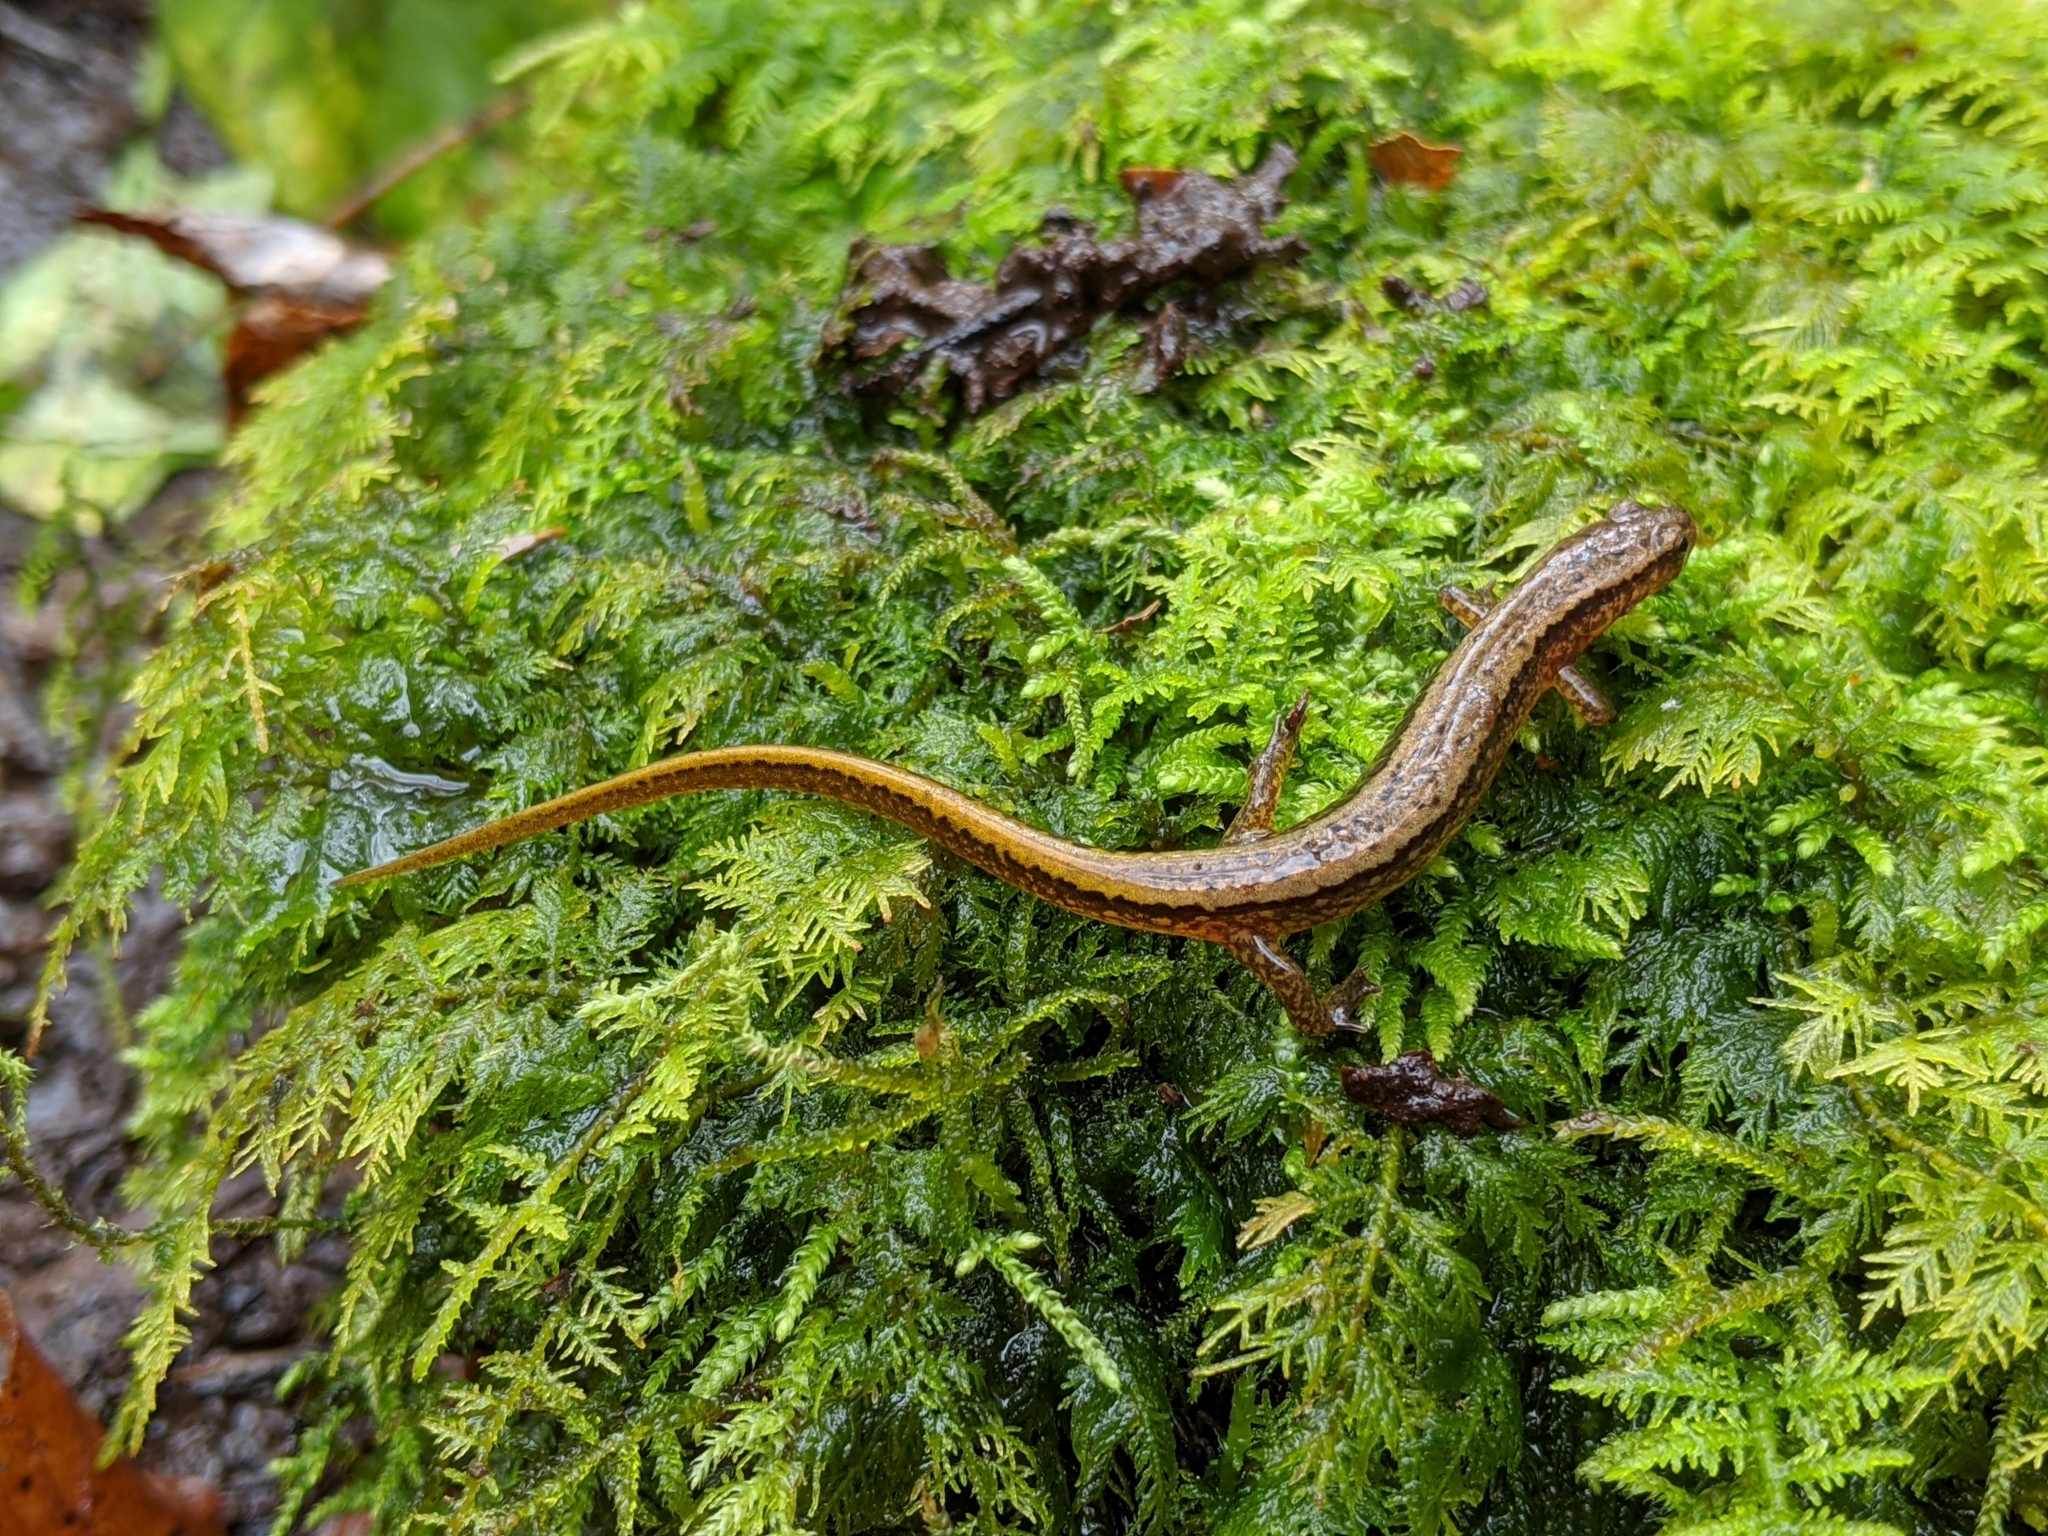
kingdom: Animalia
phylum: Chordata
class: Amphibia
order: Caudata
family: Plethodontidae
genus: Eurycea
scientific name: Eurycea bislineata
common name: Northern two-lined salamander
